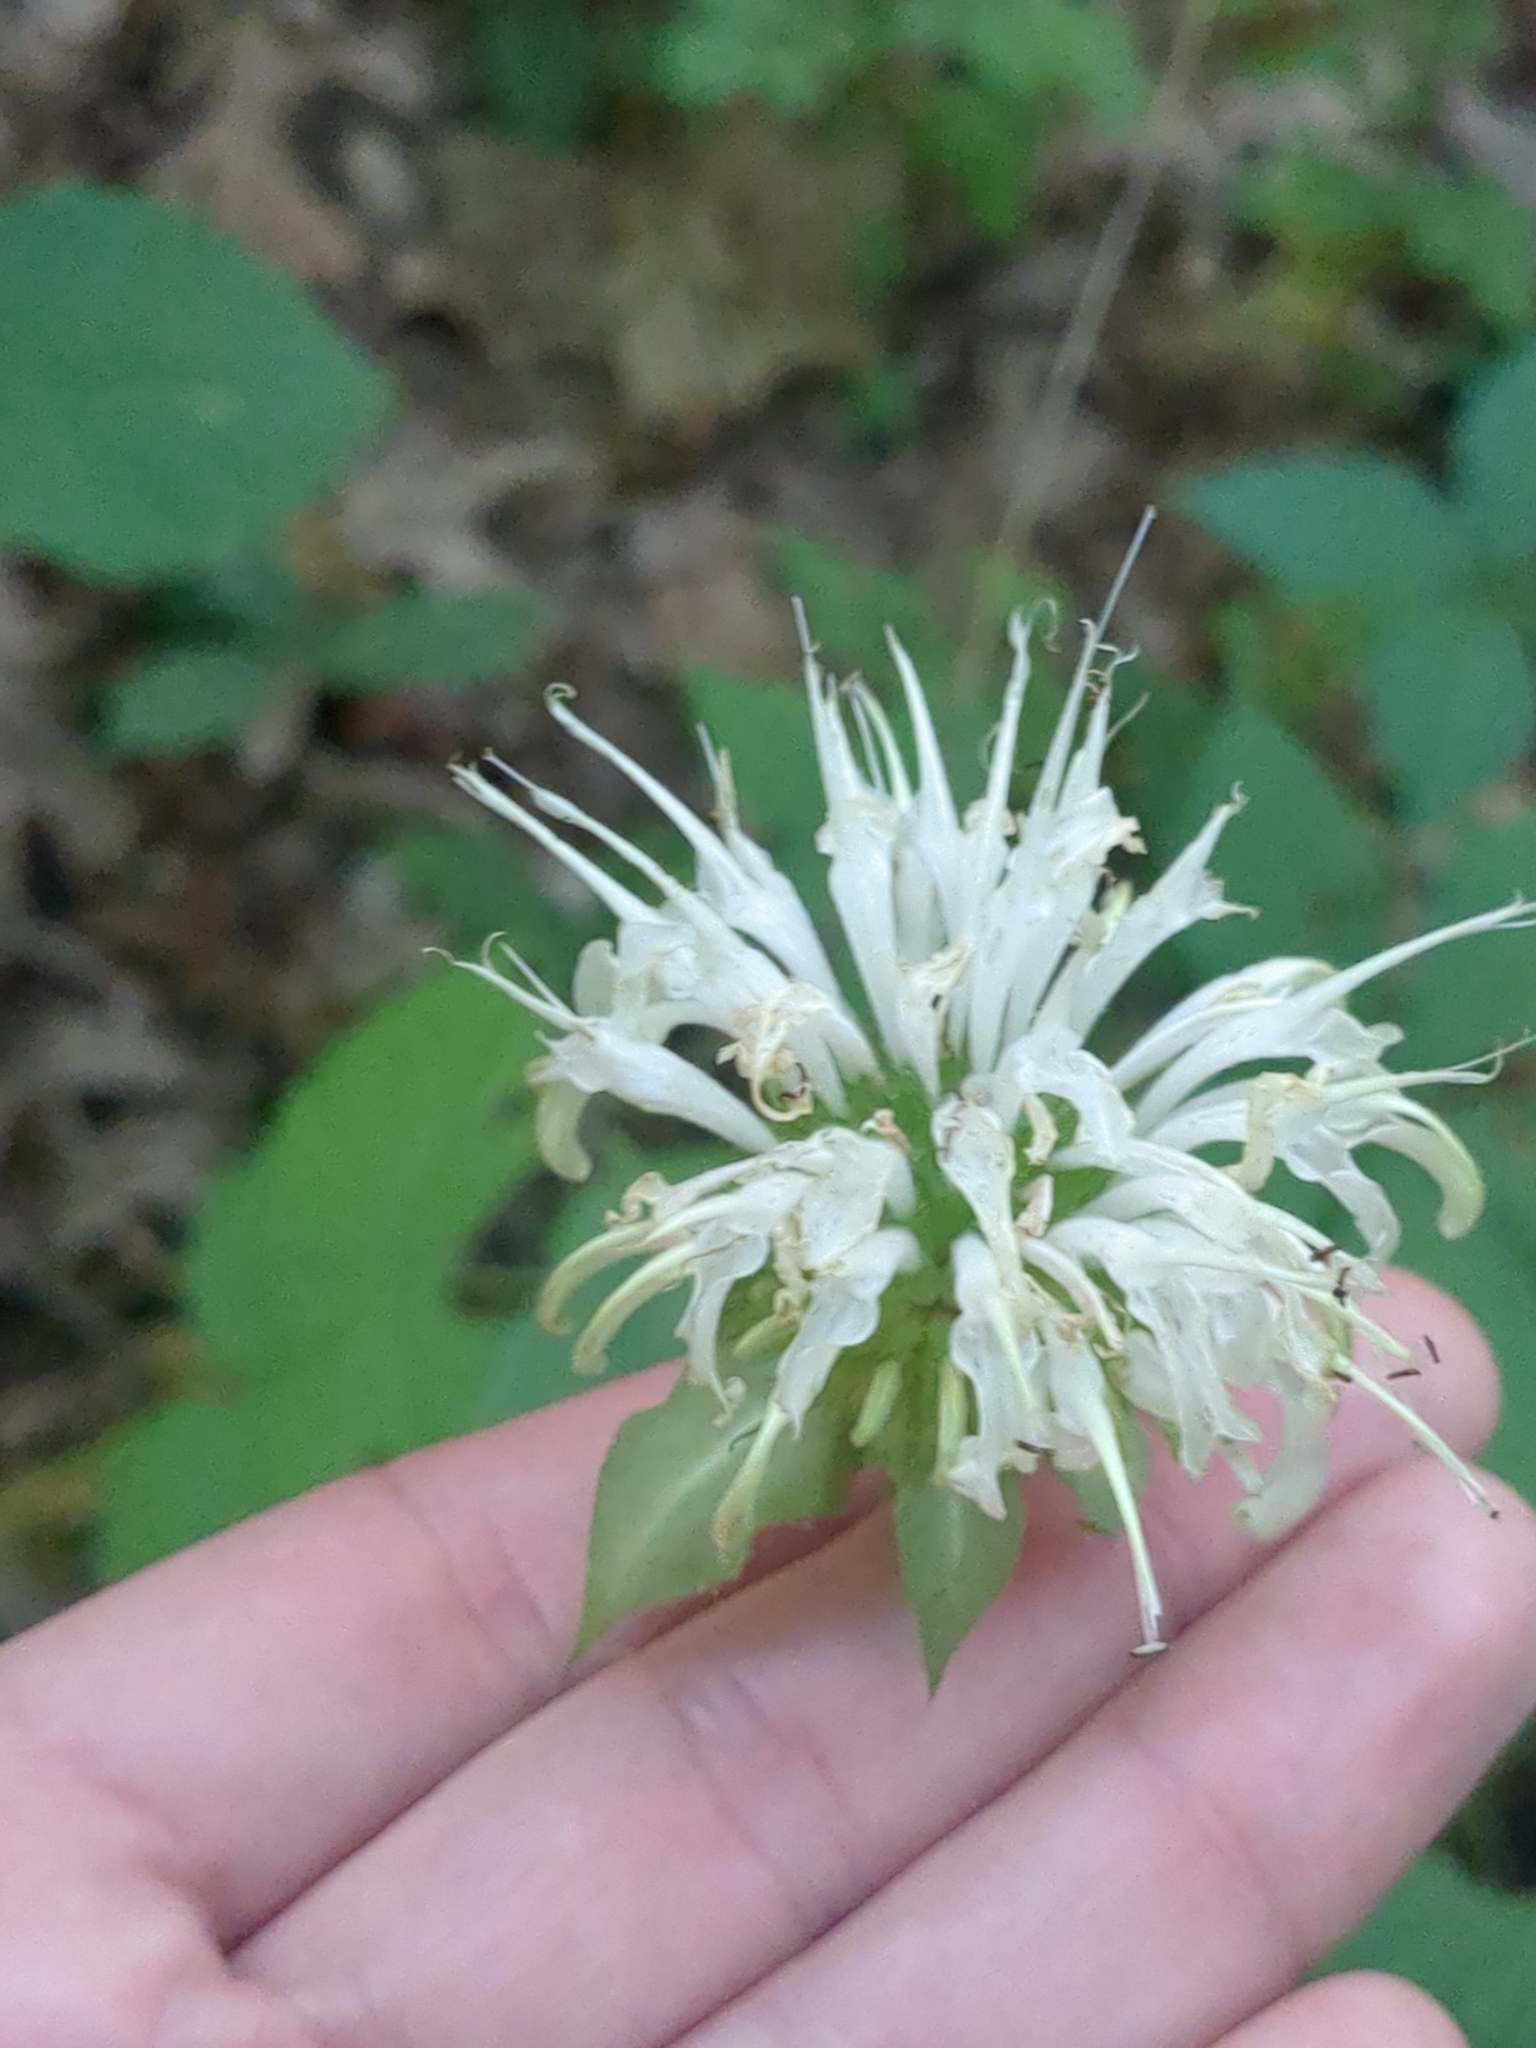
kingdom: Plantae
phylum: Tracheophyta
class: Magnoliopsida
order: Lamiales
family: Lamiaceae
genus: Monarda
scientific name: Monarda clinopodia
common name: Basil beebalm
